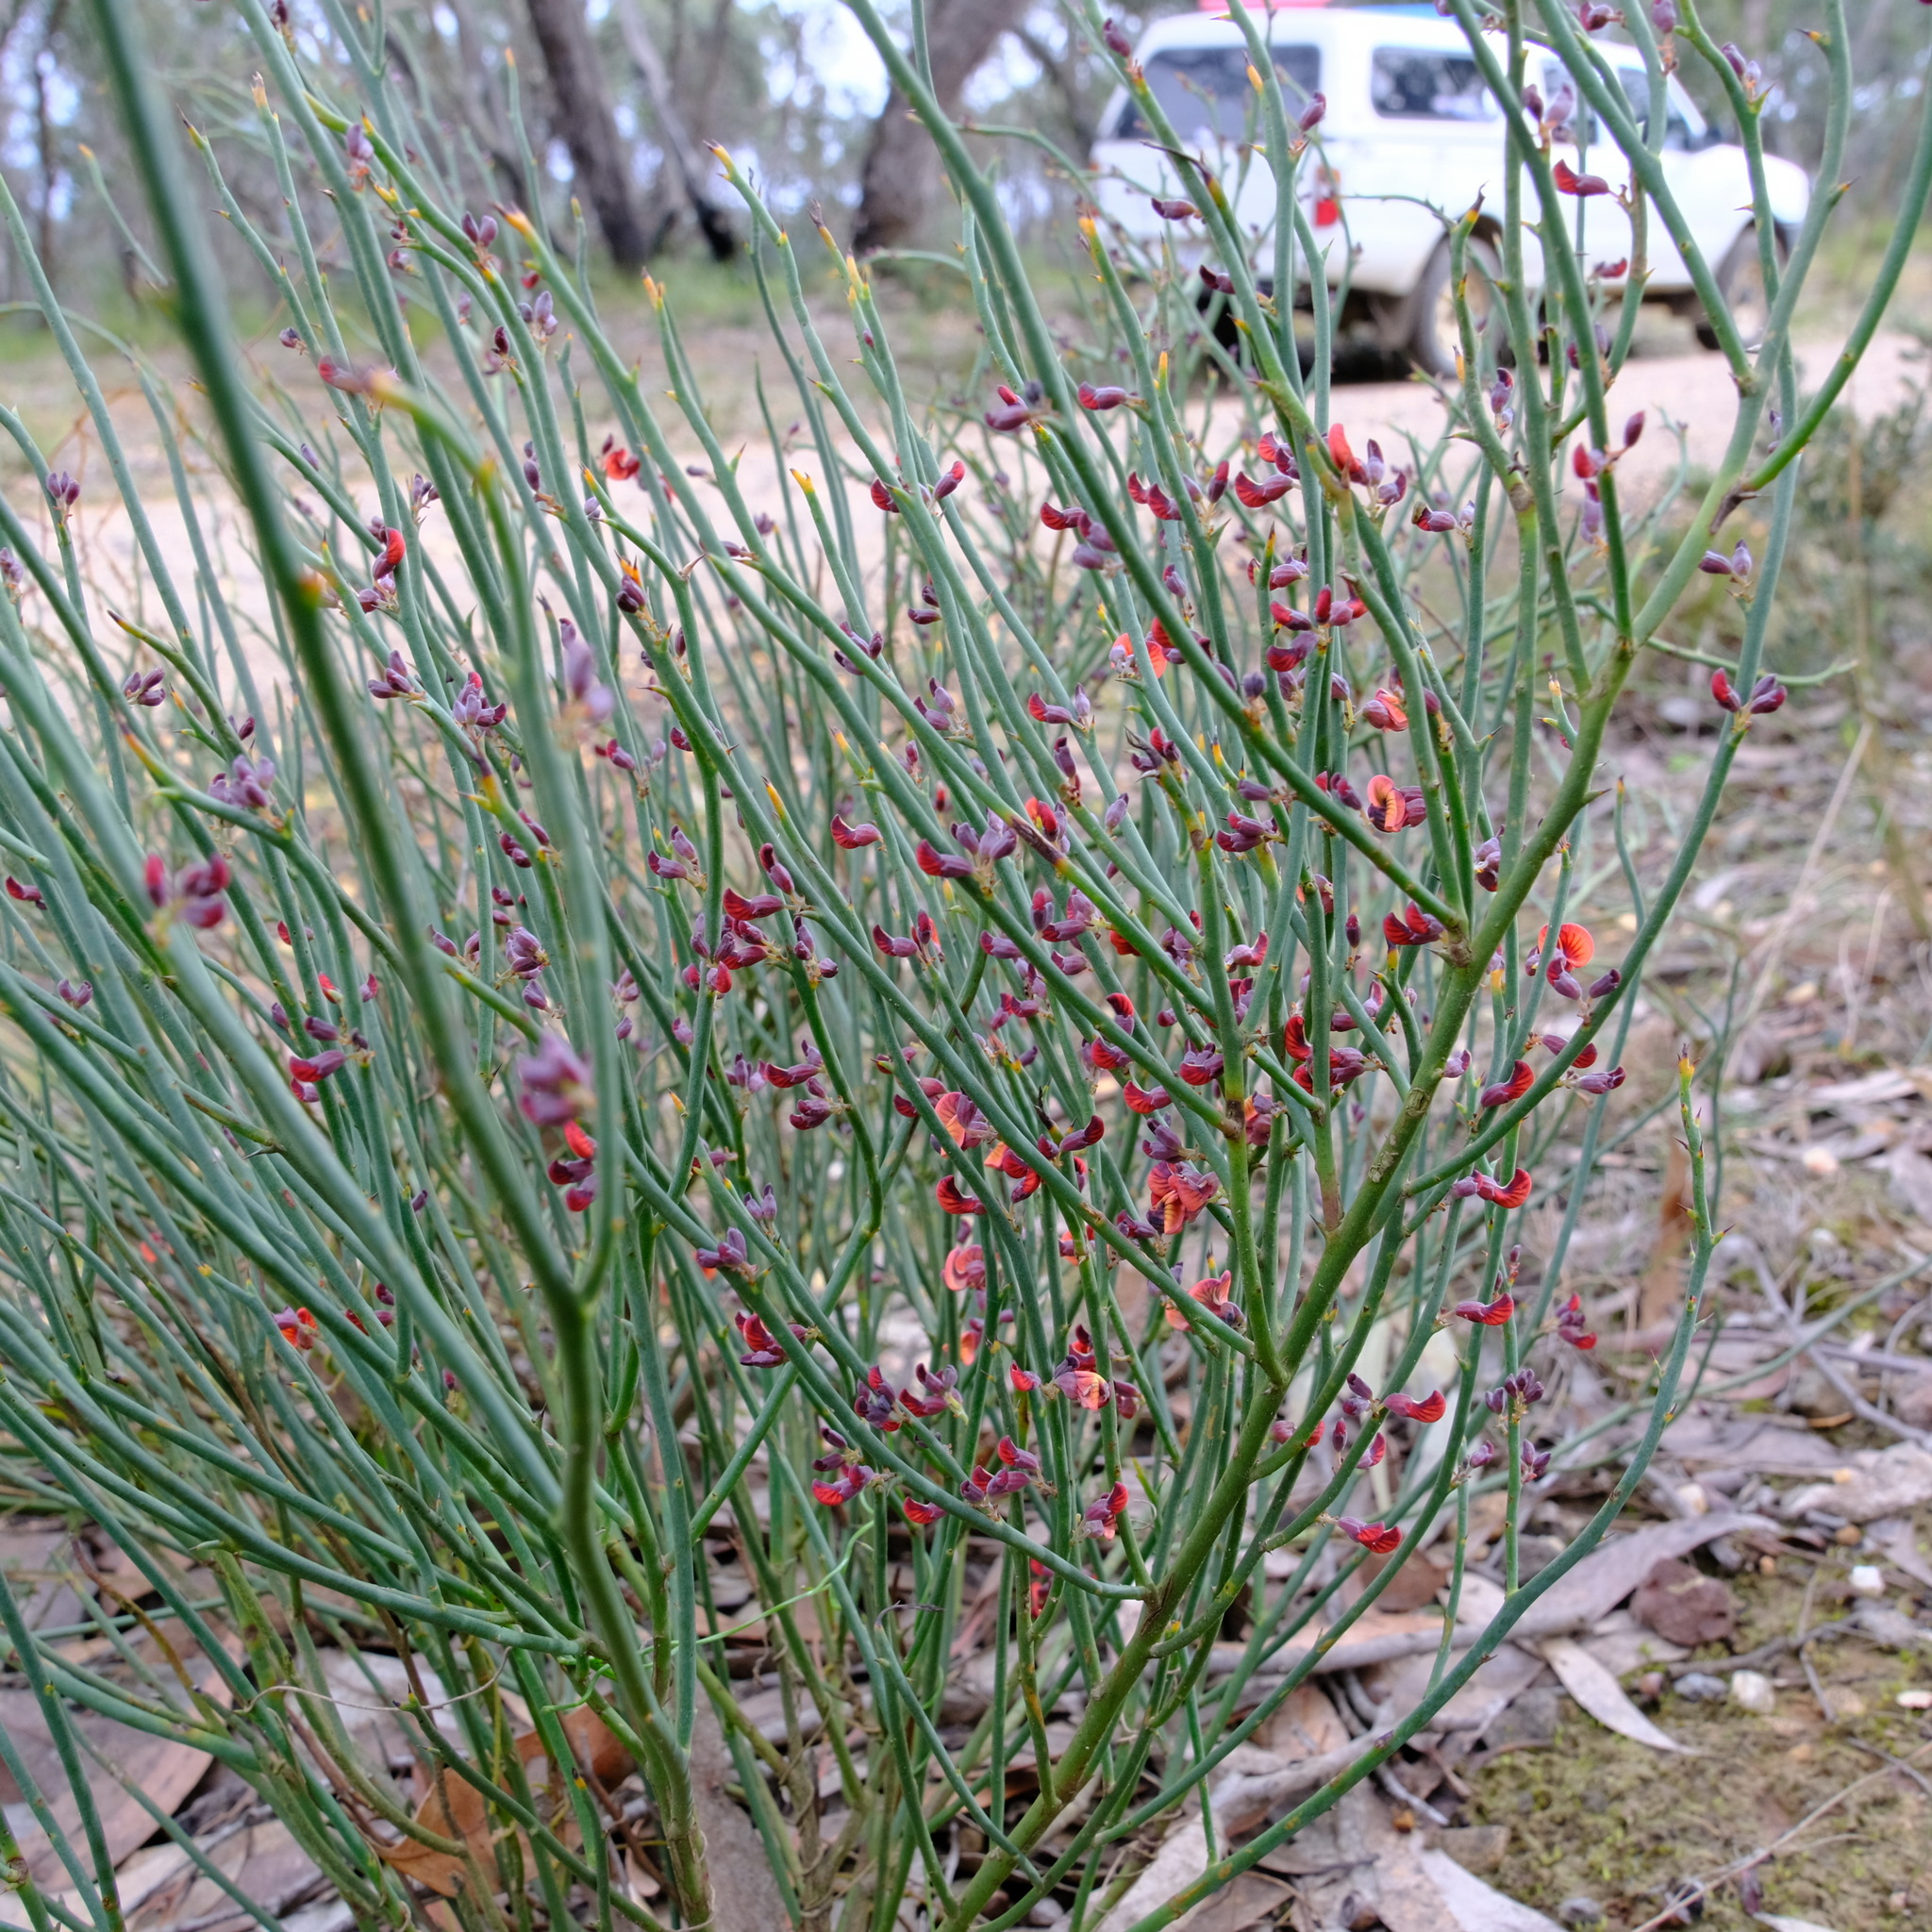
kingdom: Plantae
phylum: Tracheophyta
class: Magnoliopsida
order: Fabales
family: Fabaceae
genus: Daviesia
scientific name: Daviesia brevifolia
